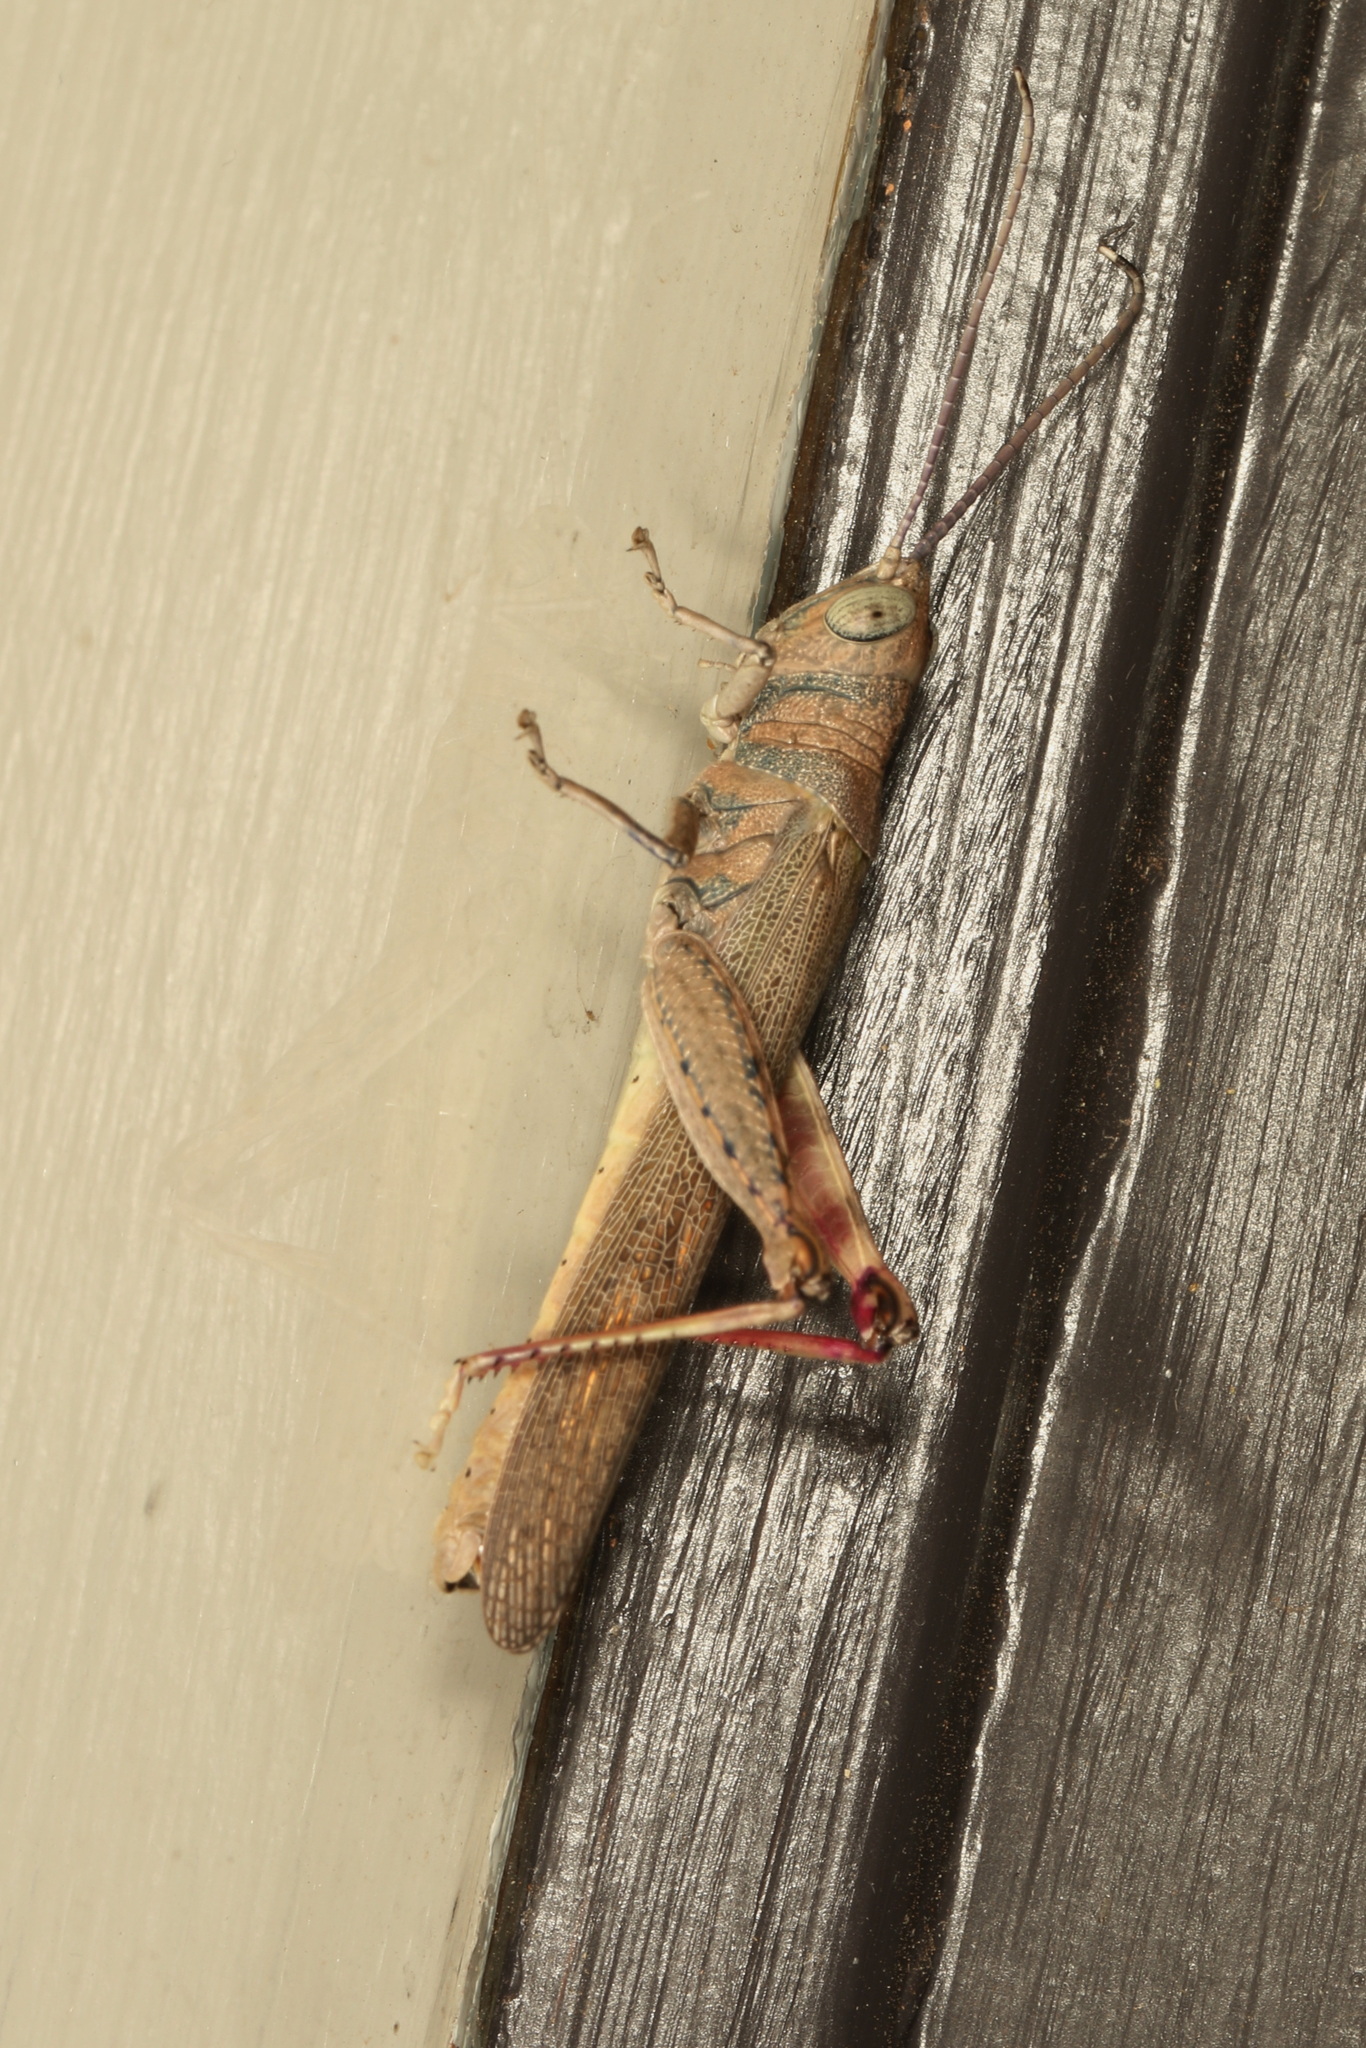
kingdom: Animalia
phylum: Arthropoda
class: Insecta
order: Orthoptera
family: Acrididae
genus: Pardillana
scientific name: Pardillana limbata
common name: Common pardillana
